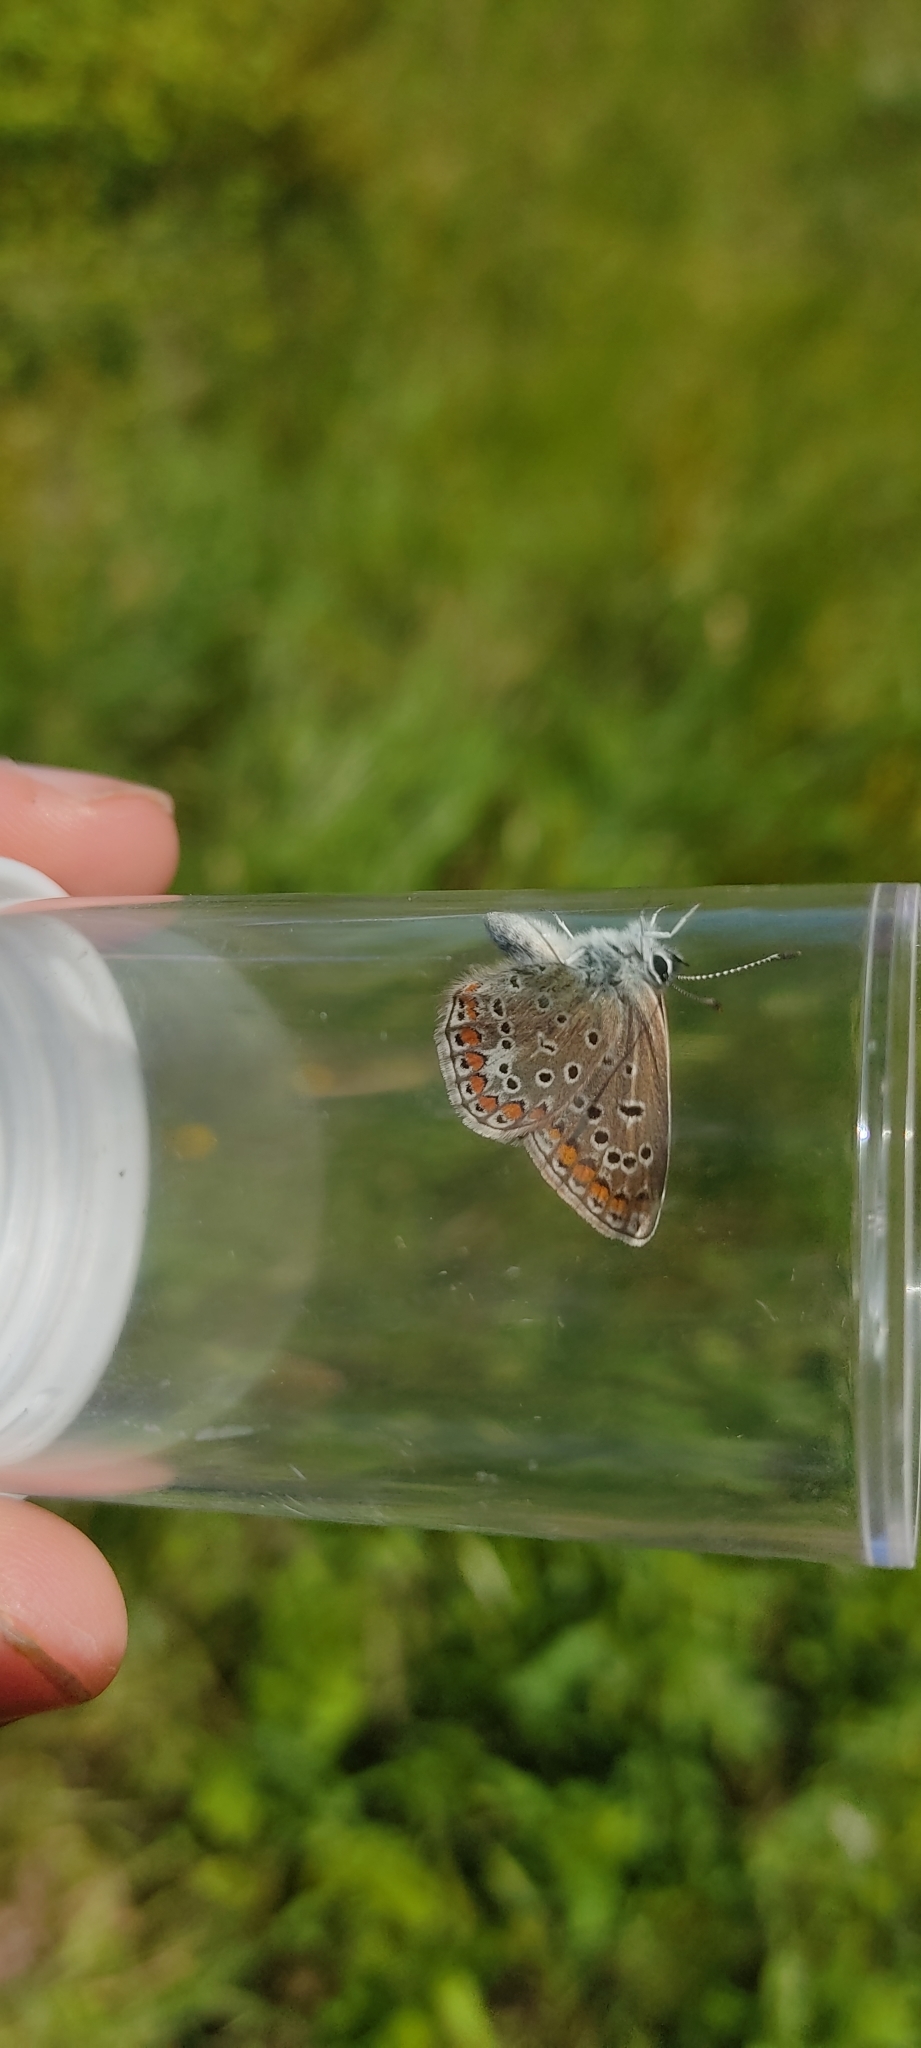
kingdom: Animalia
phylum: Arthropoda
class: Insecta
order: Lepidoptera
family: Lycaenidae
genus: Polyommatus
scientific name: Polyommatus icarus
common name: Common blue
